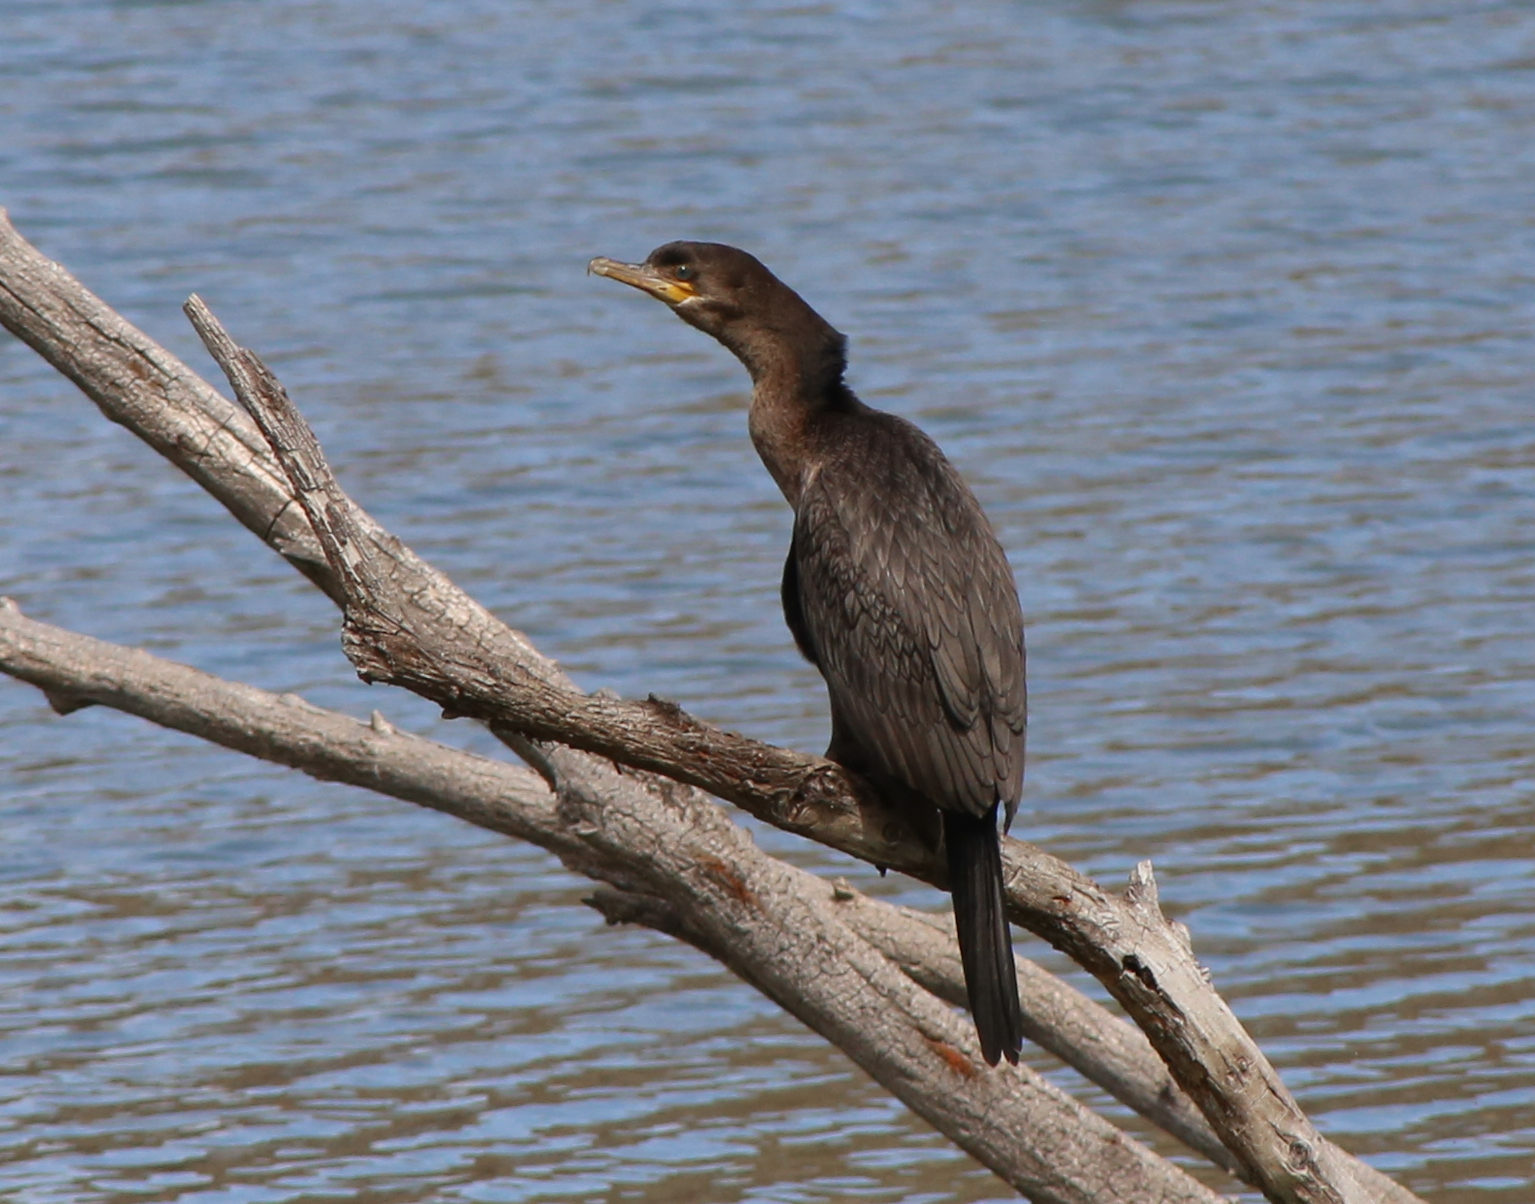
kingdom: Animalia
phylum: Chordata
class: Aves
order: Suliformes
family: Phalacrocoracidae
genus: Phalacrocorax
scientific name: Phalacrocorax brasilianus
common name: Neotropic cormorant
